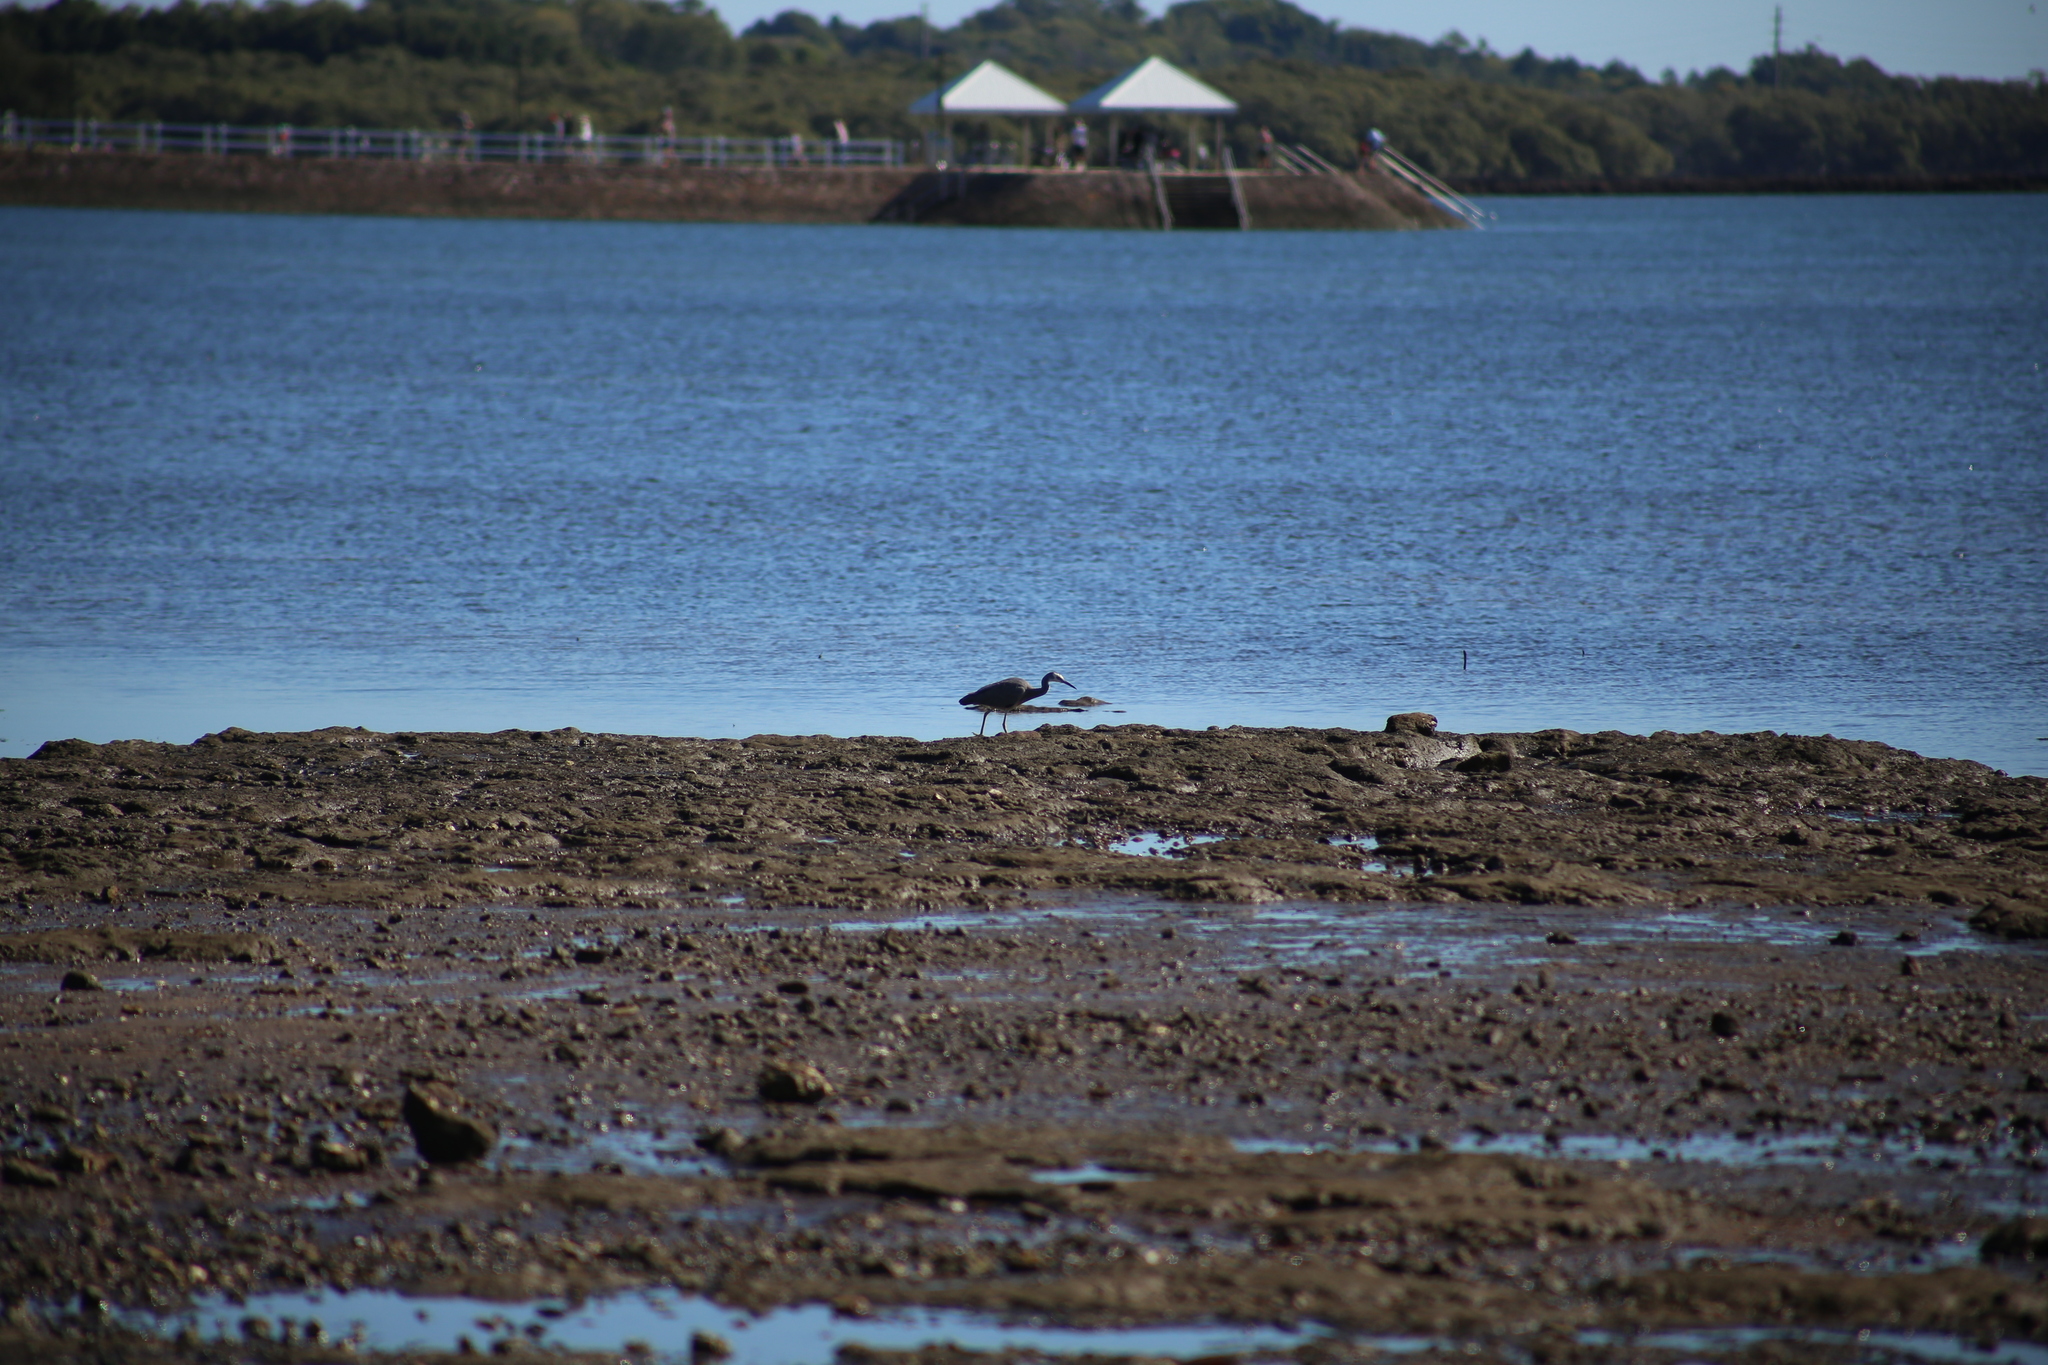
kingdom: Animalia
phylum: Chordata
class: Aves
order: Pelecaniformes
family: Ardeidae
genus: Egretta
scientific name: Egretta novaehollandiae
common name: White-faced heron
